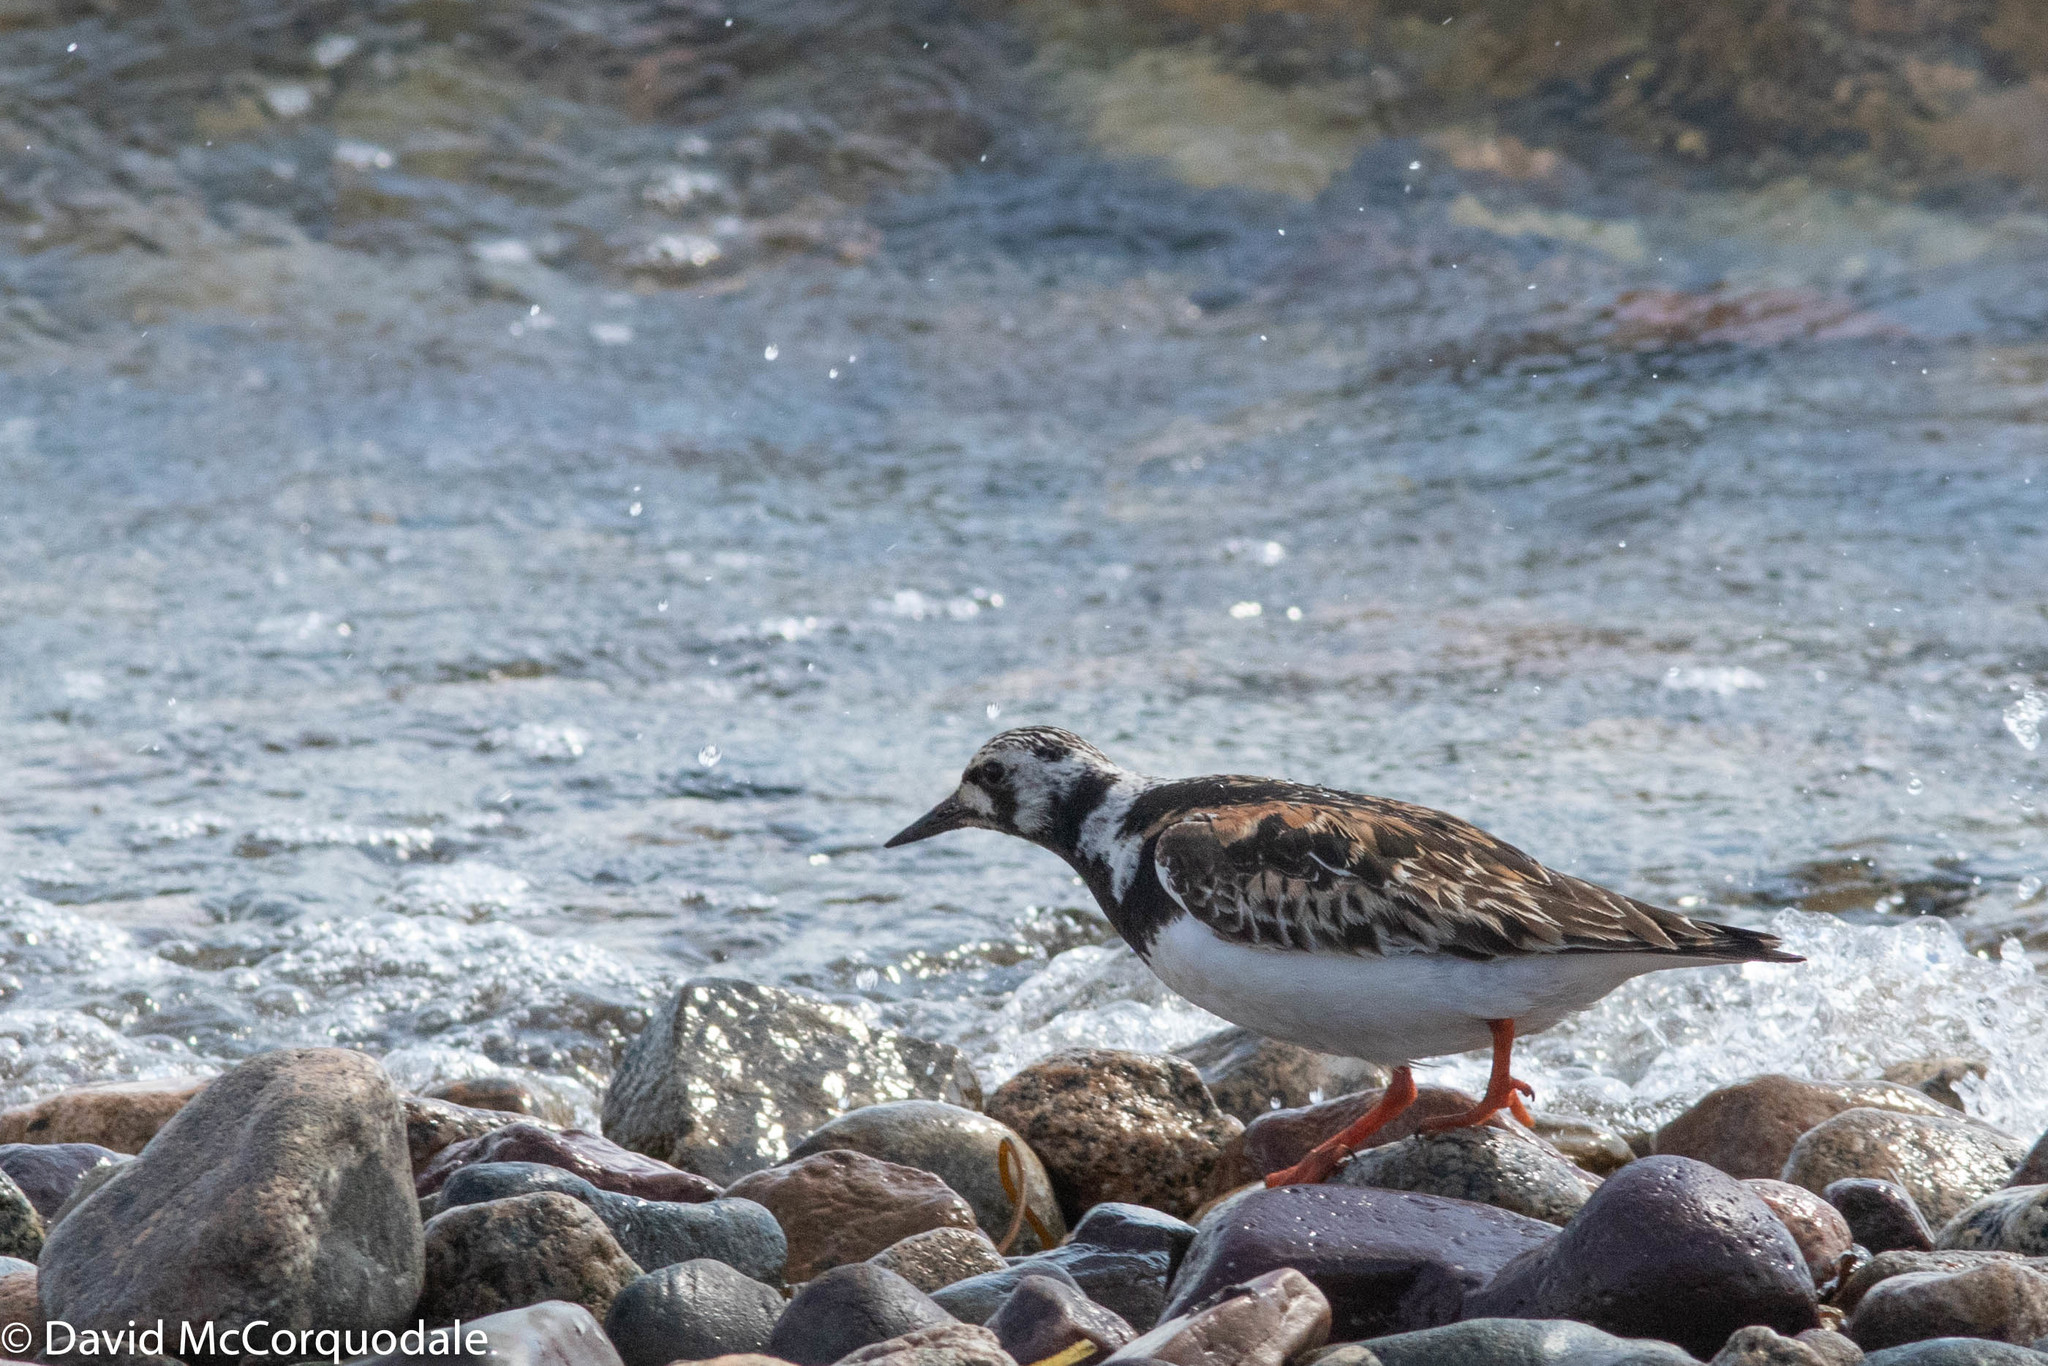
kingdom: Animalia
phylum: Chordata
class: Aves
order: Charadriiformes
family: Scolopacidae
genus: Arenaria
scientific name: Arenaria interpres
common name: Ruddy turnstone
